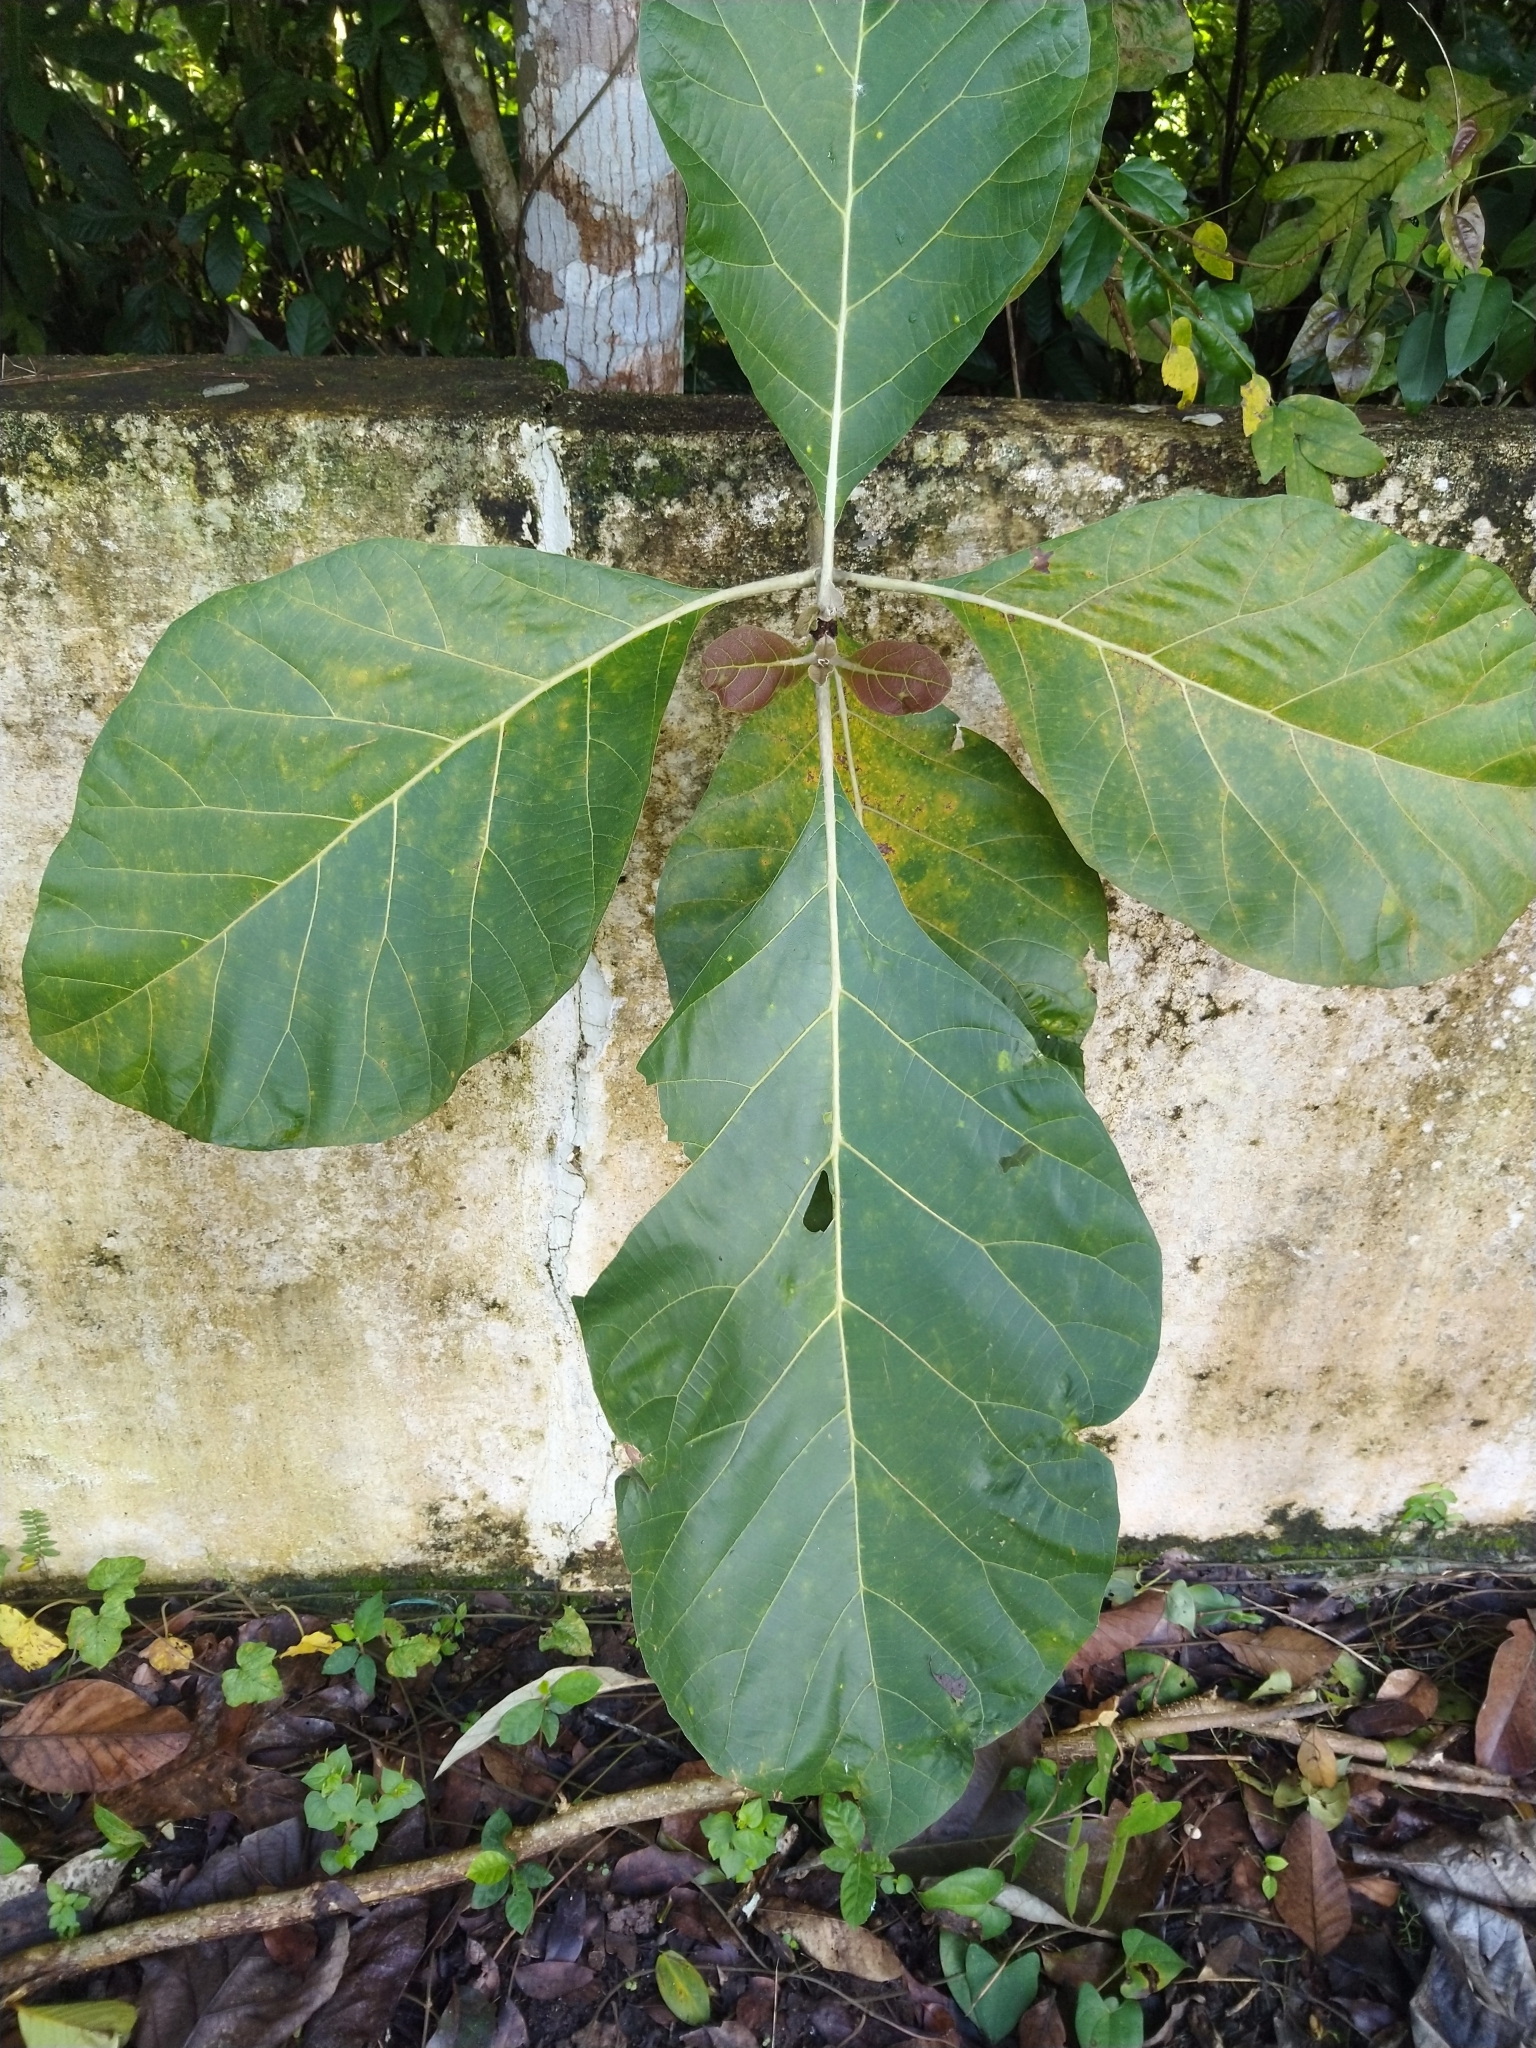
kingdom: Plantae
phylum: Tracheophyta
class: Magnoliopsida
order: Lamiales
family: Lamiaceae
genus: Tectona
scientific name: Tectona grandis
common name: Teak
